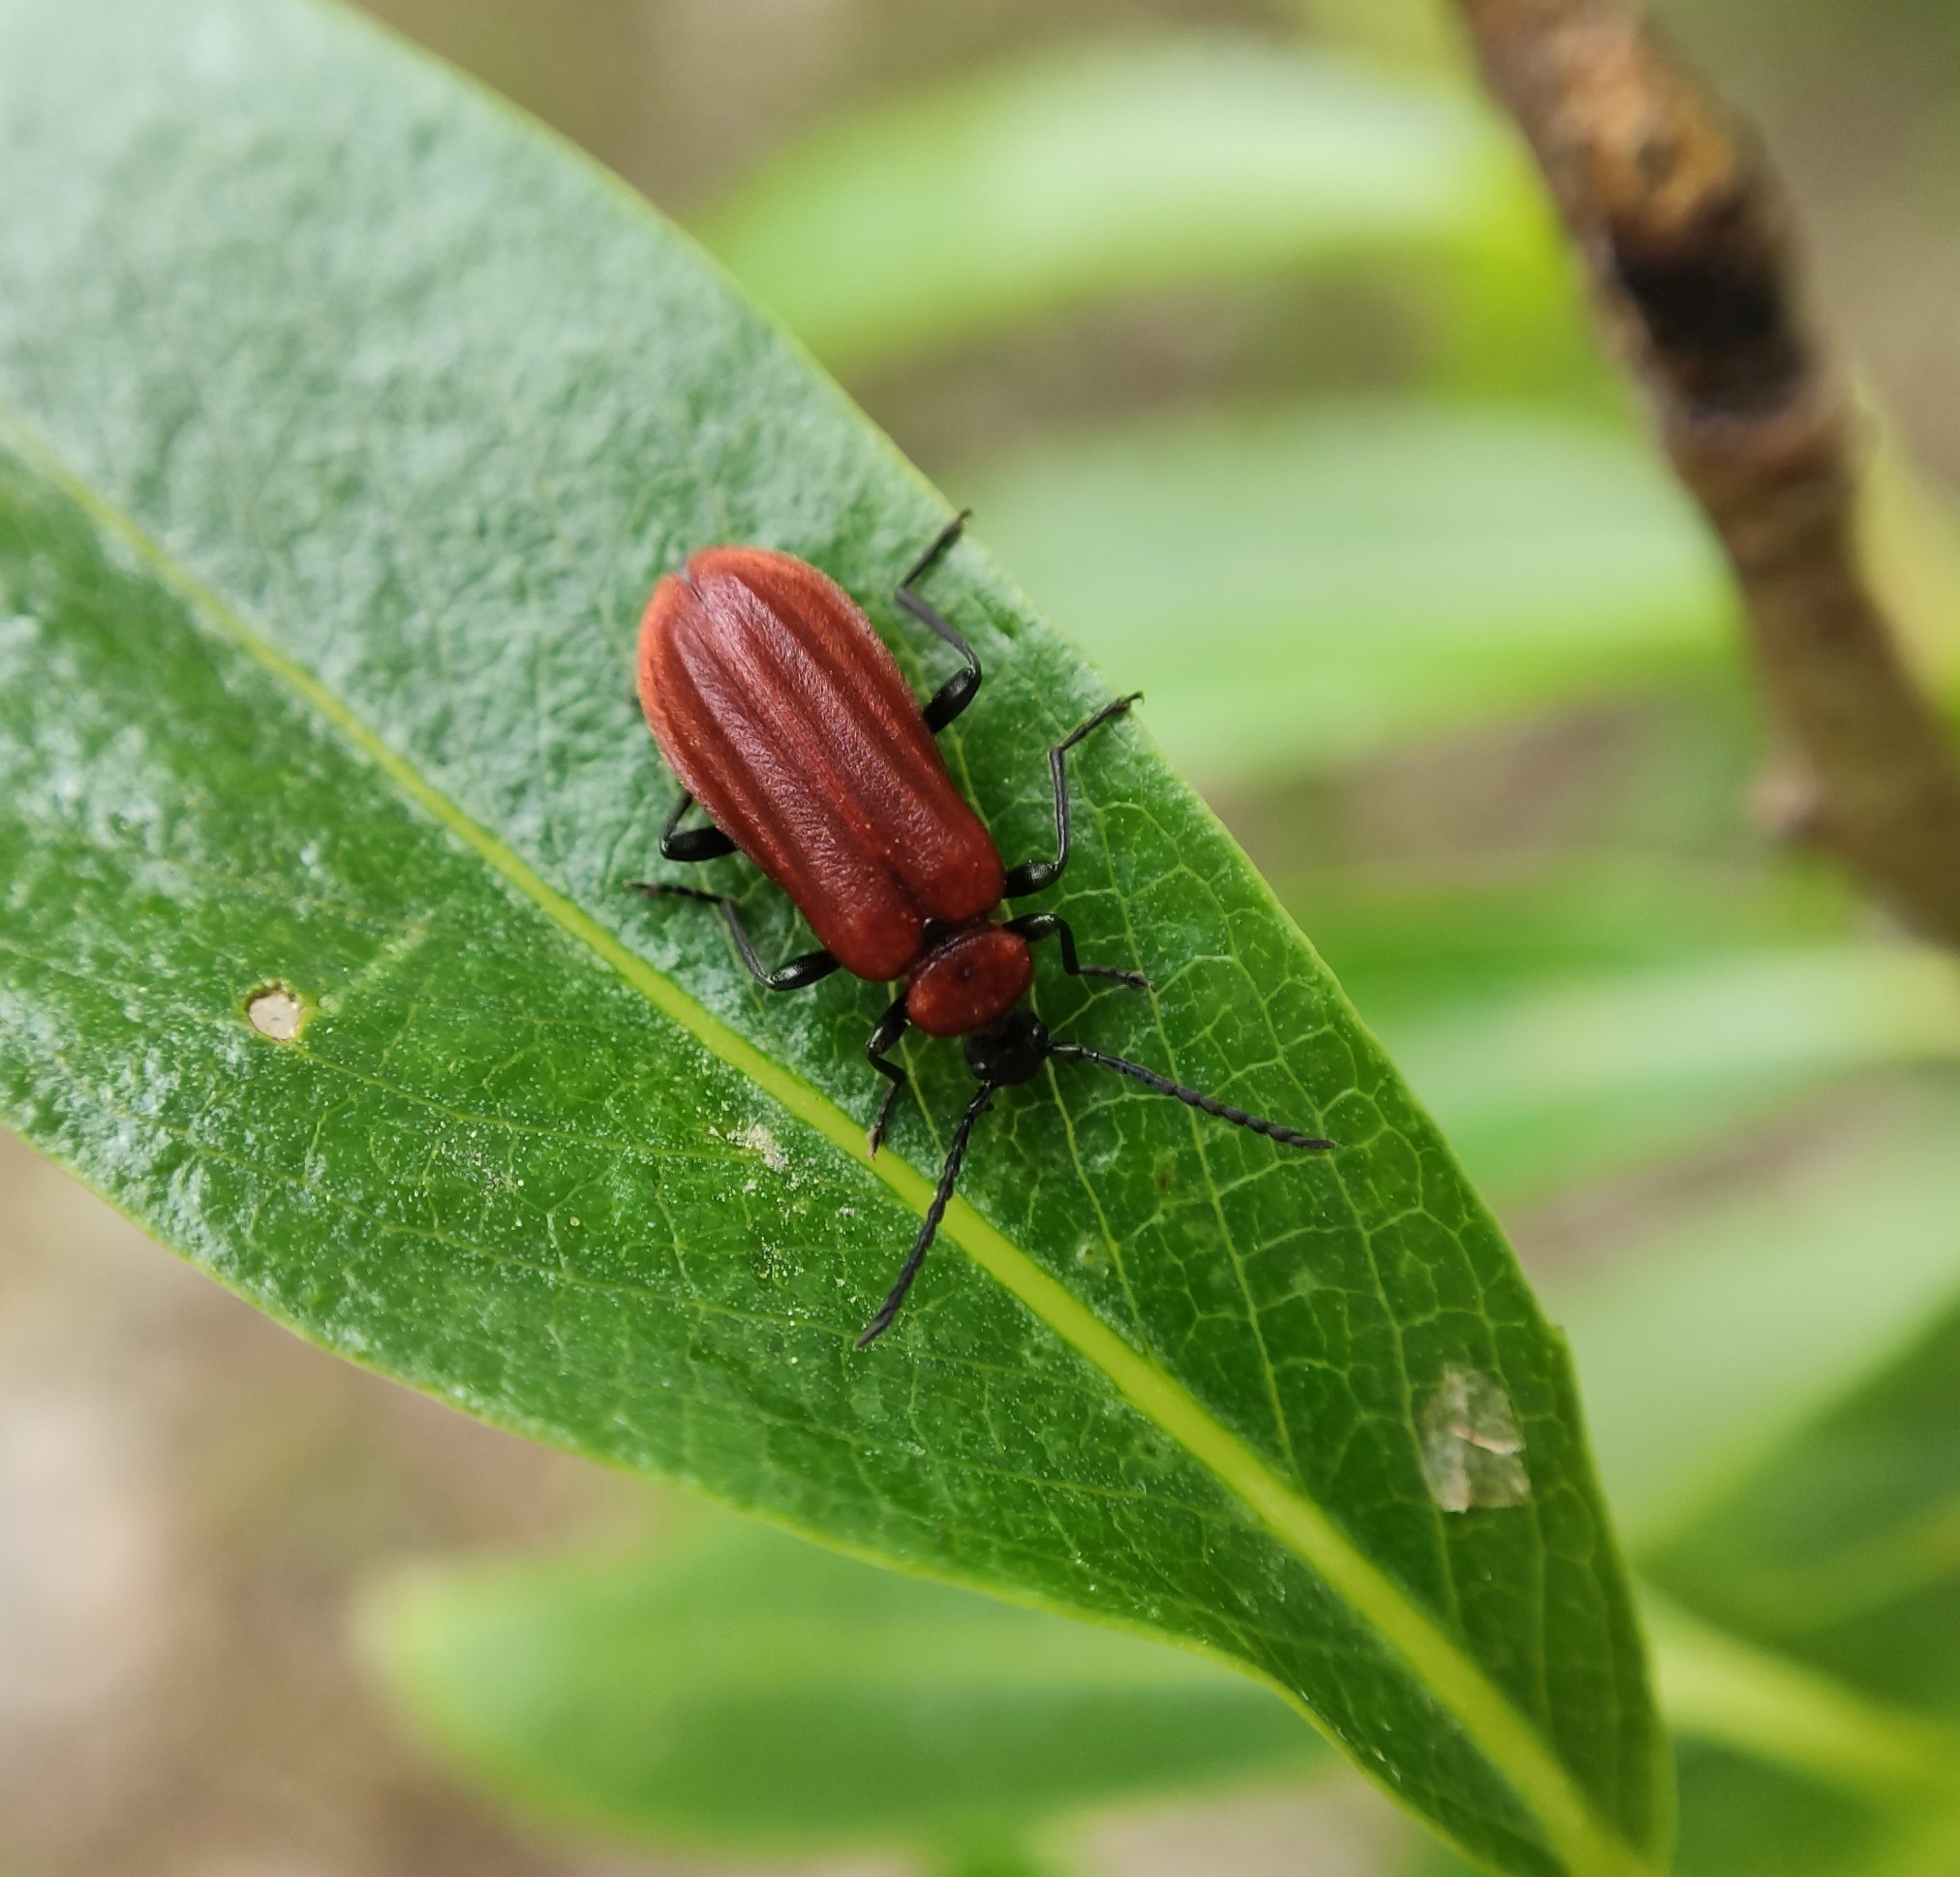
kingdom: Animalia
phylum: Arthropoda
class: Insecta
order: Coleoptera
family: Pyrochroidae
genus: Schizotus
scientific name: Schizotus pectinicornis
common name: Scarce cardinal beetle
